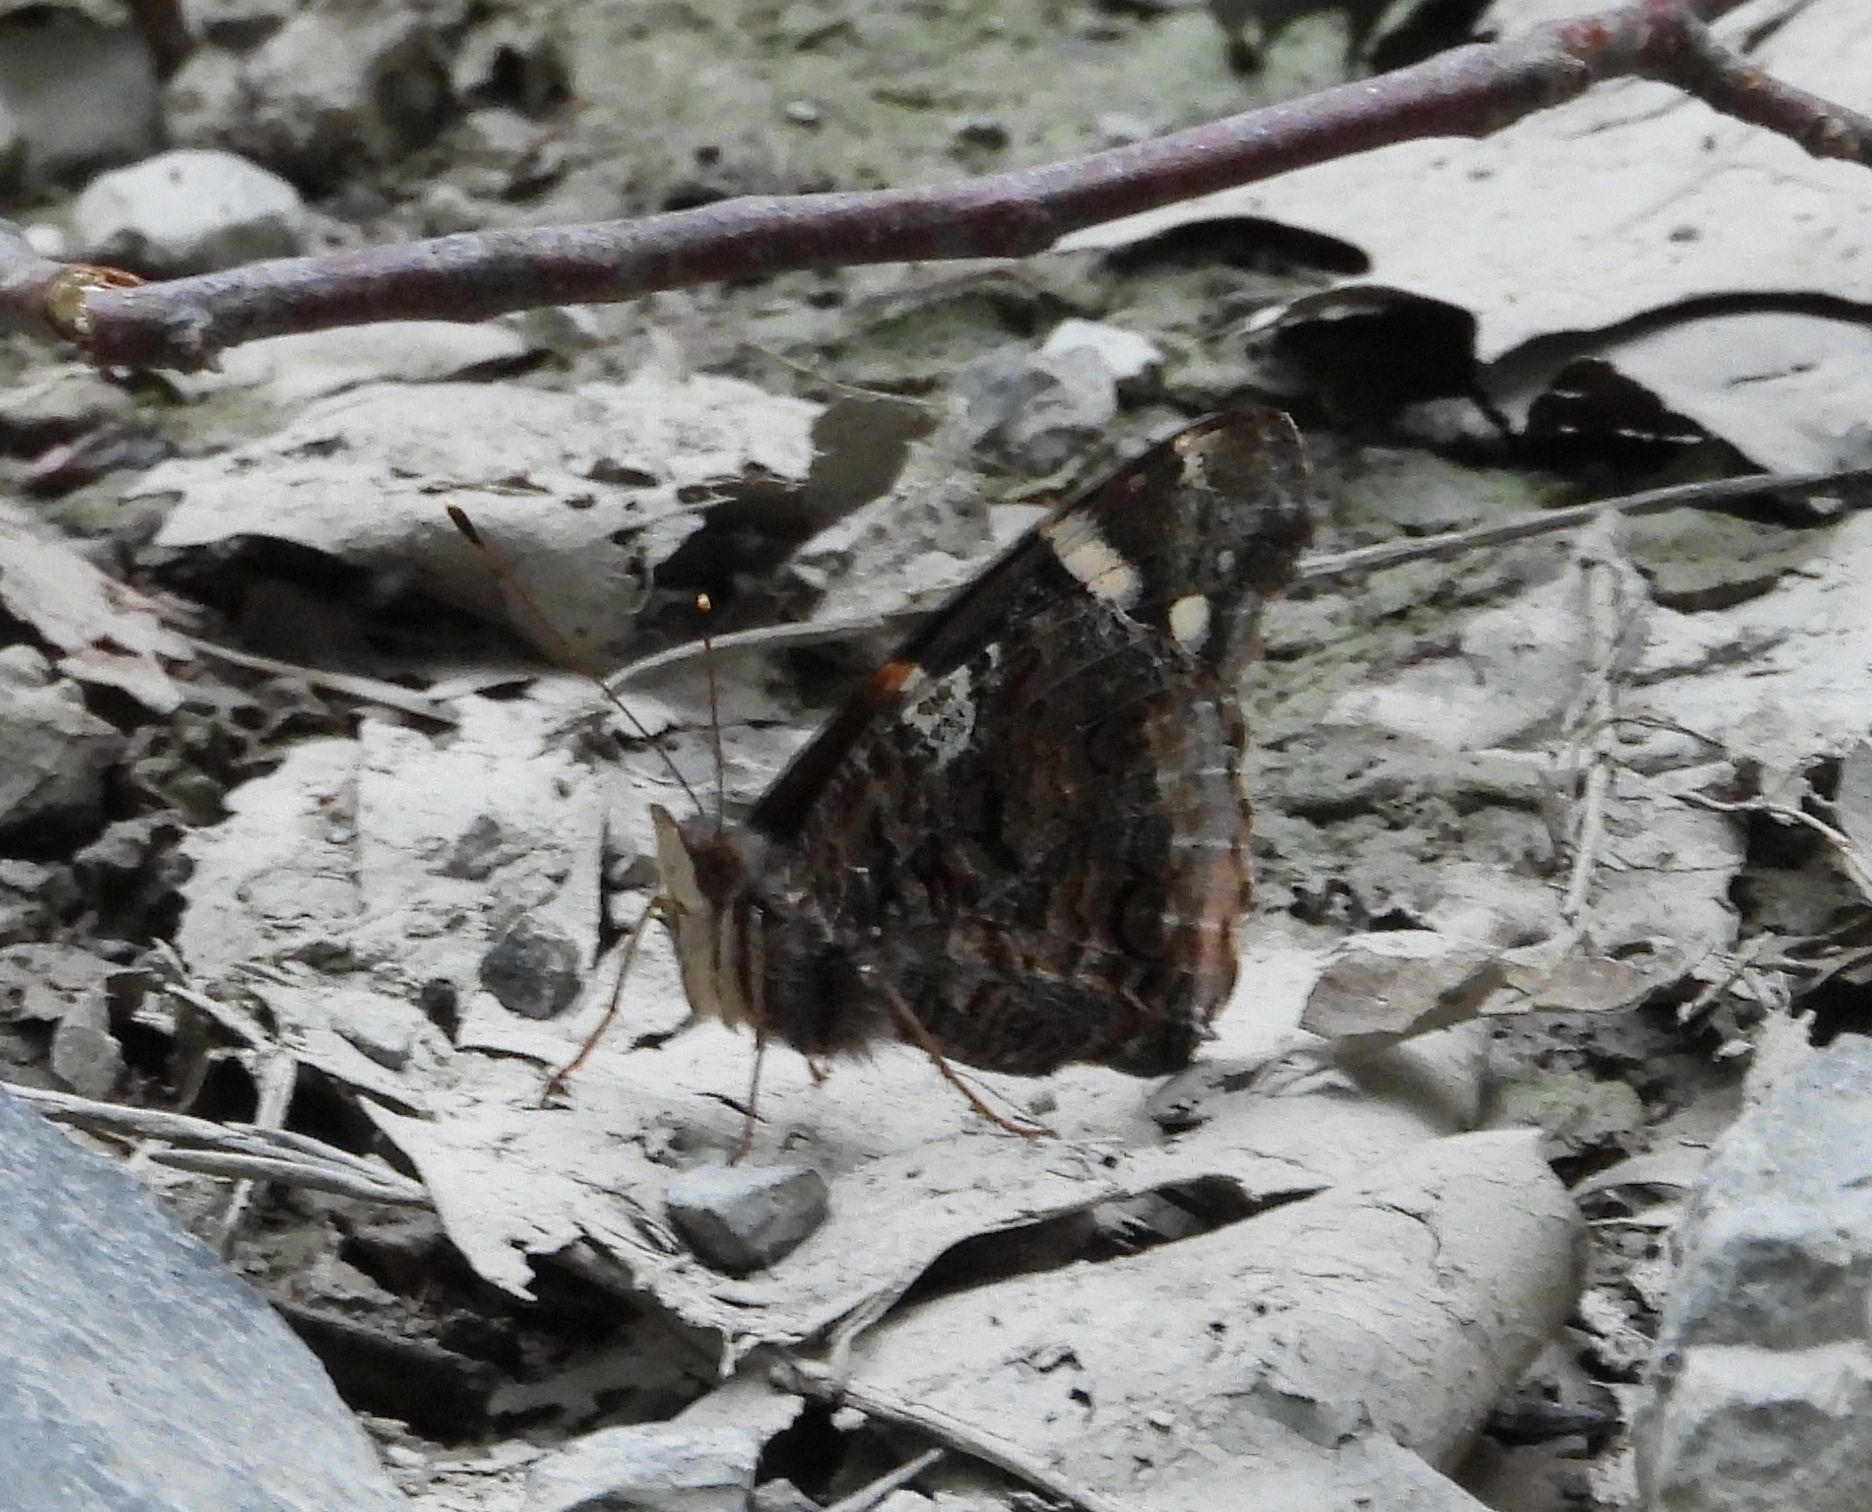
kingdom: Animalia
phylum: Arthropoda
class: Insecta
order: Lepidoptera
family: Nymphalidae
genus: Vanessa
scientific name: Vanessa atalanta
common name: Red admiral
